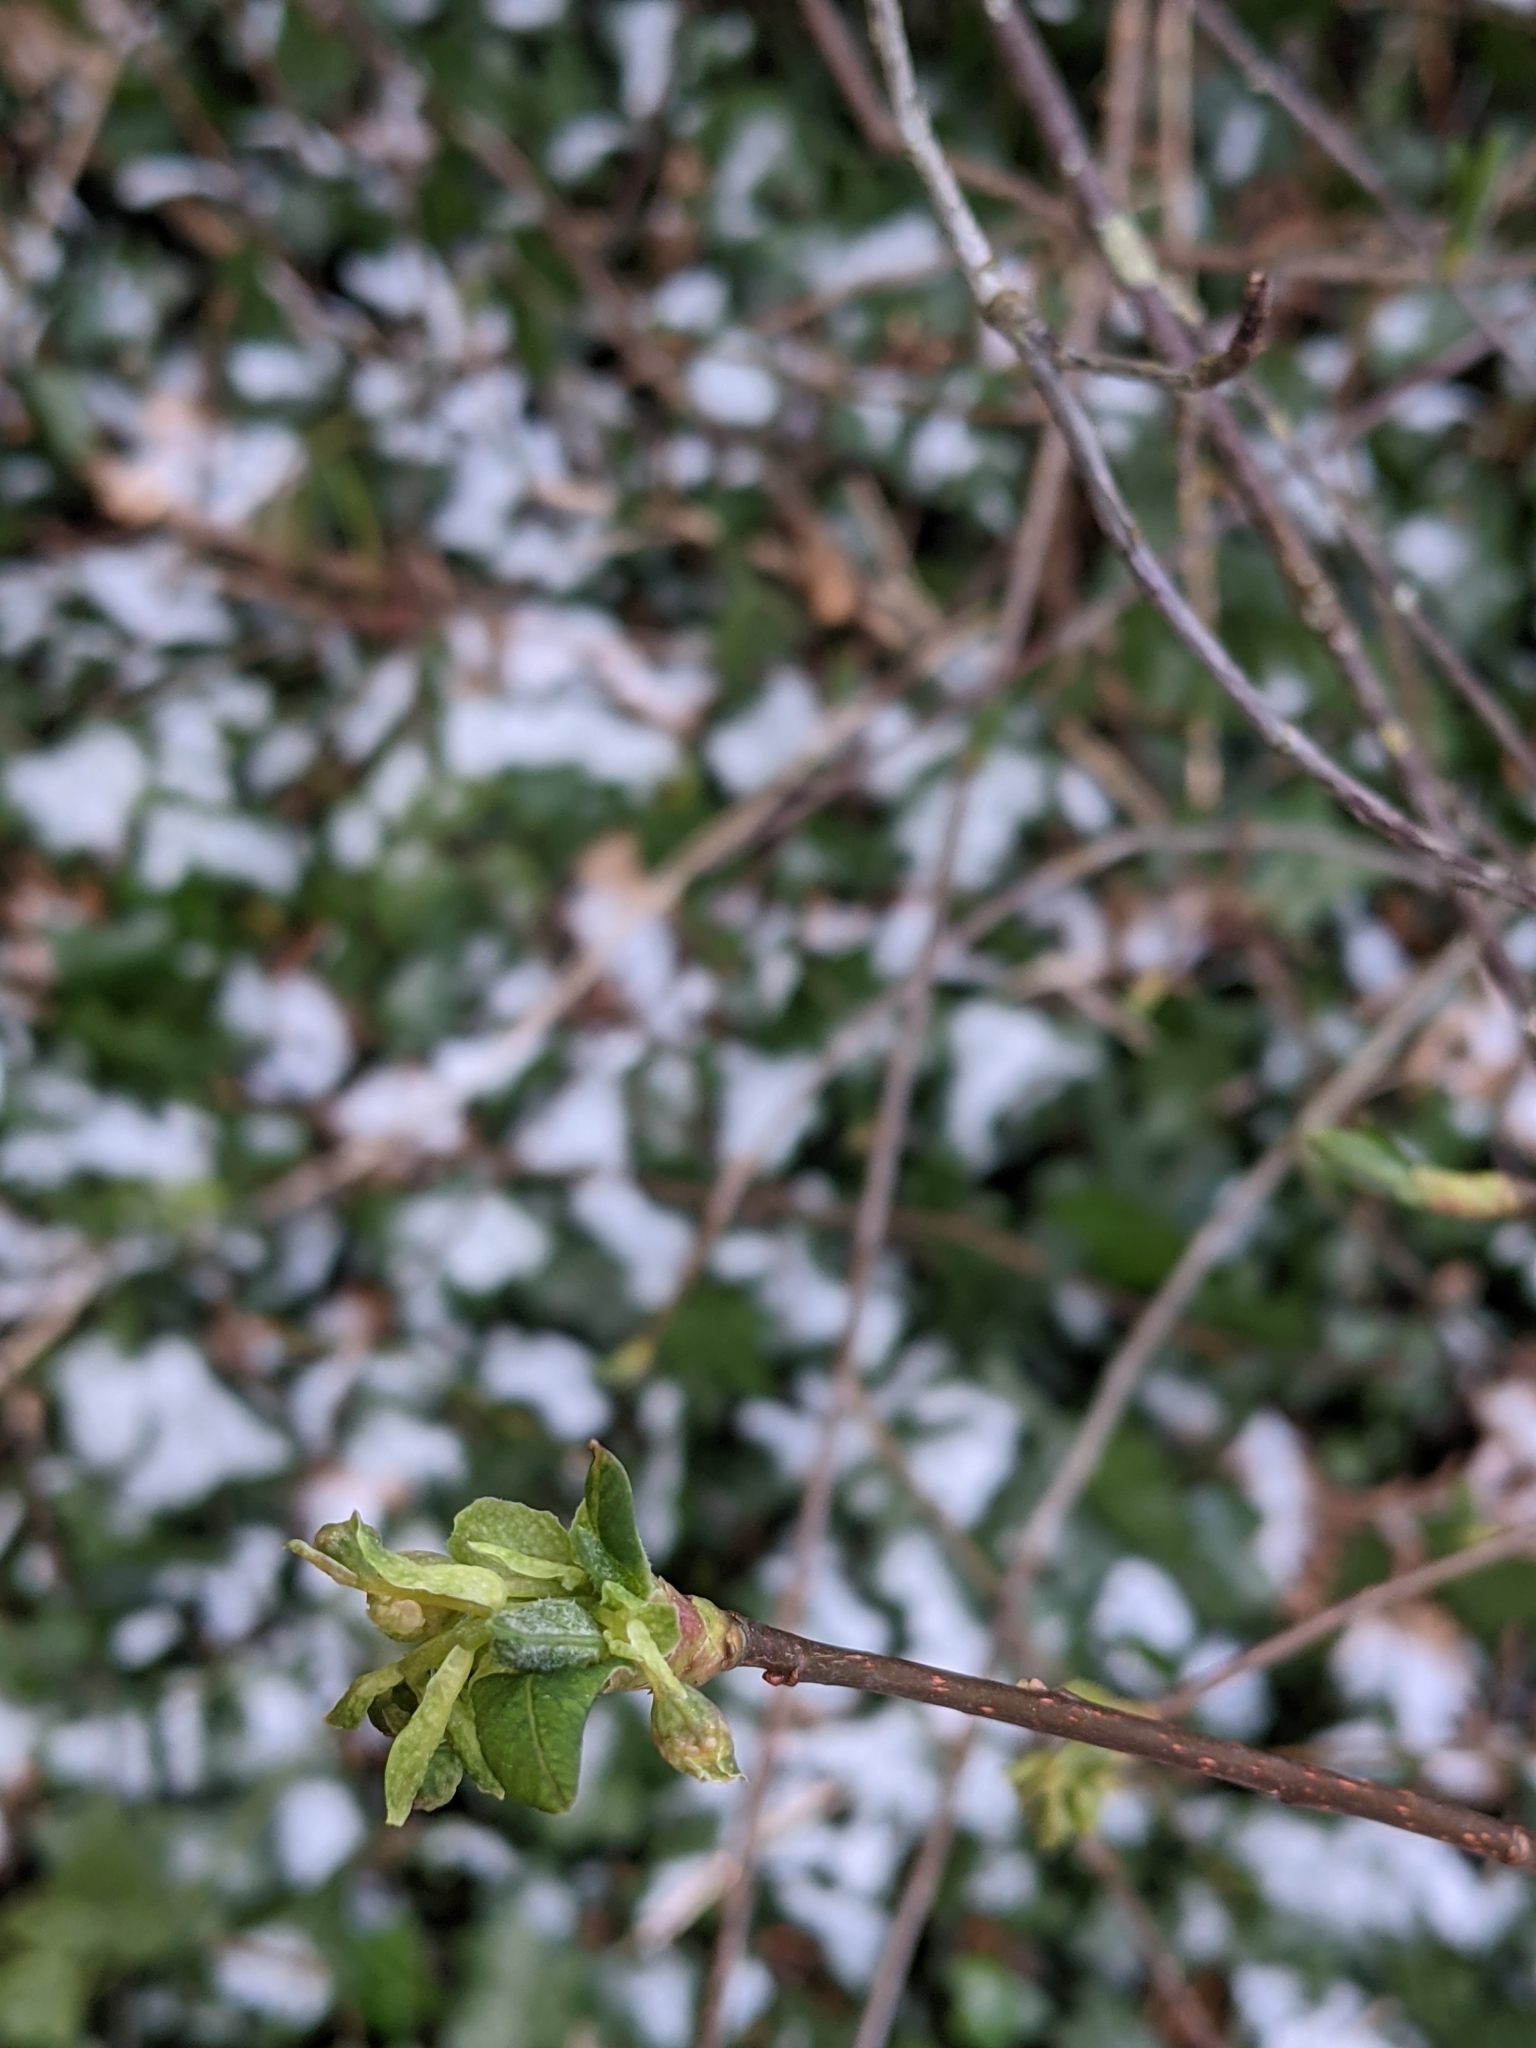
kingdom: Plantae
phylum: Tracheophyta
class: Magnoliopsida
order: Rosales
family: Rosaceae
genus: Oemleria
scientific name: Oemleria cerasiformis
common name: Osoberry
